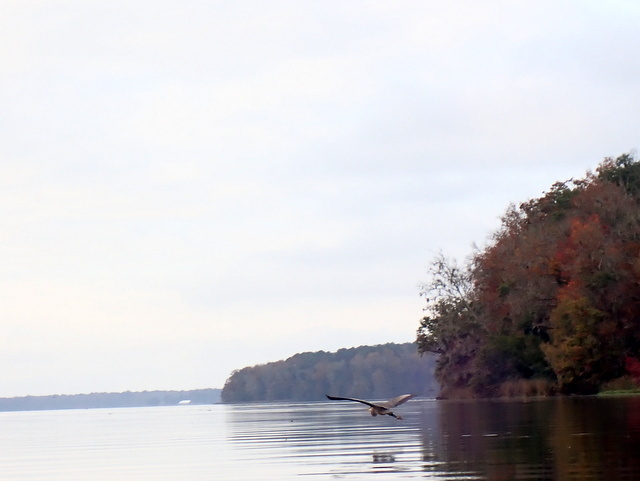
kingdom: Animalia
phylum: Chordata
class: Aves
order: Pelecaniformes
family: Ardeidae
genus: Ardea
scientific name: Ardea herodias
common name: Great blue heron
